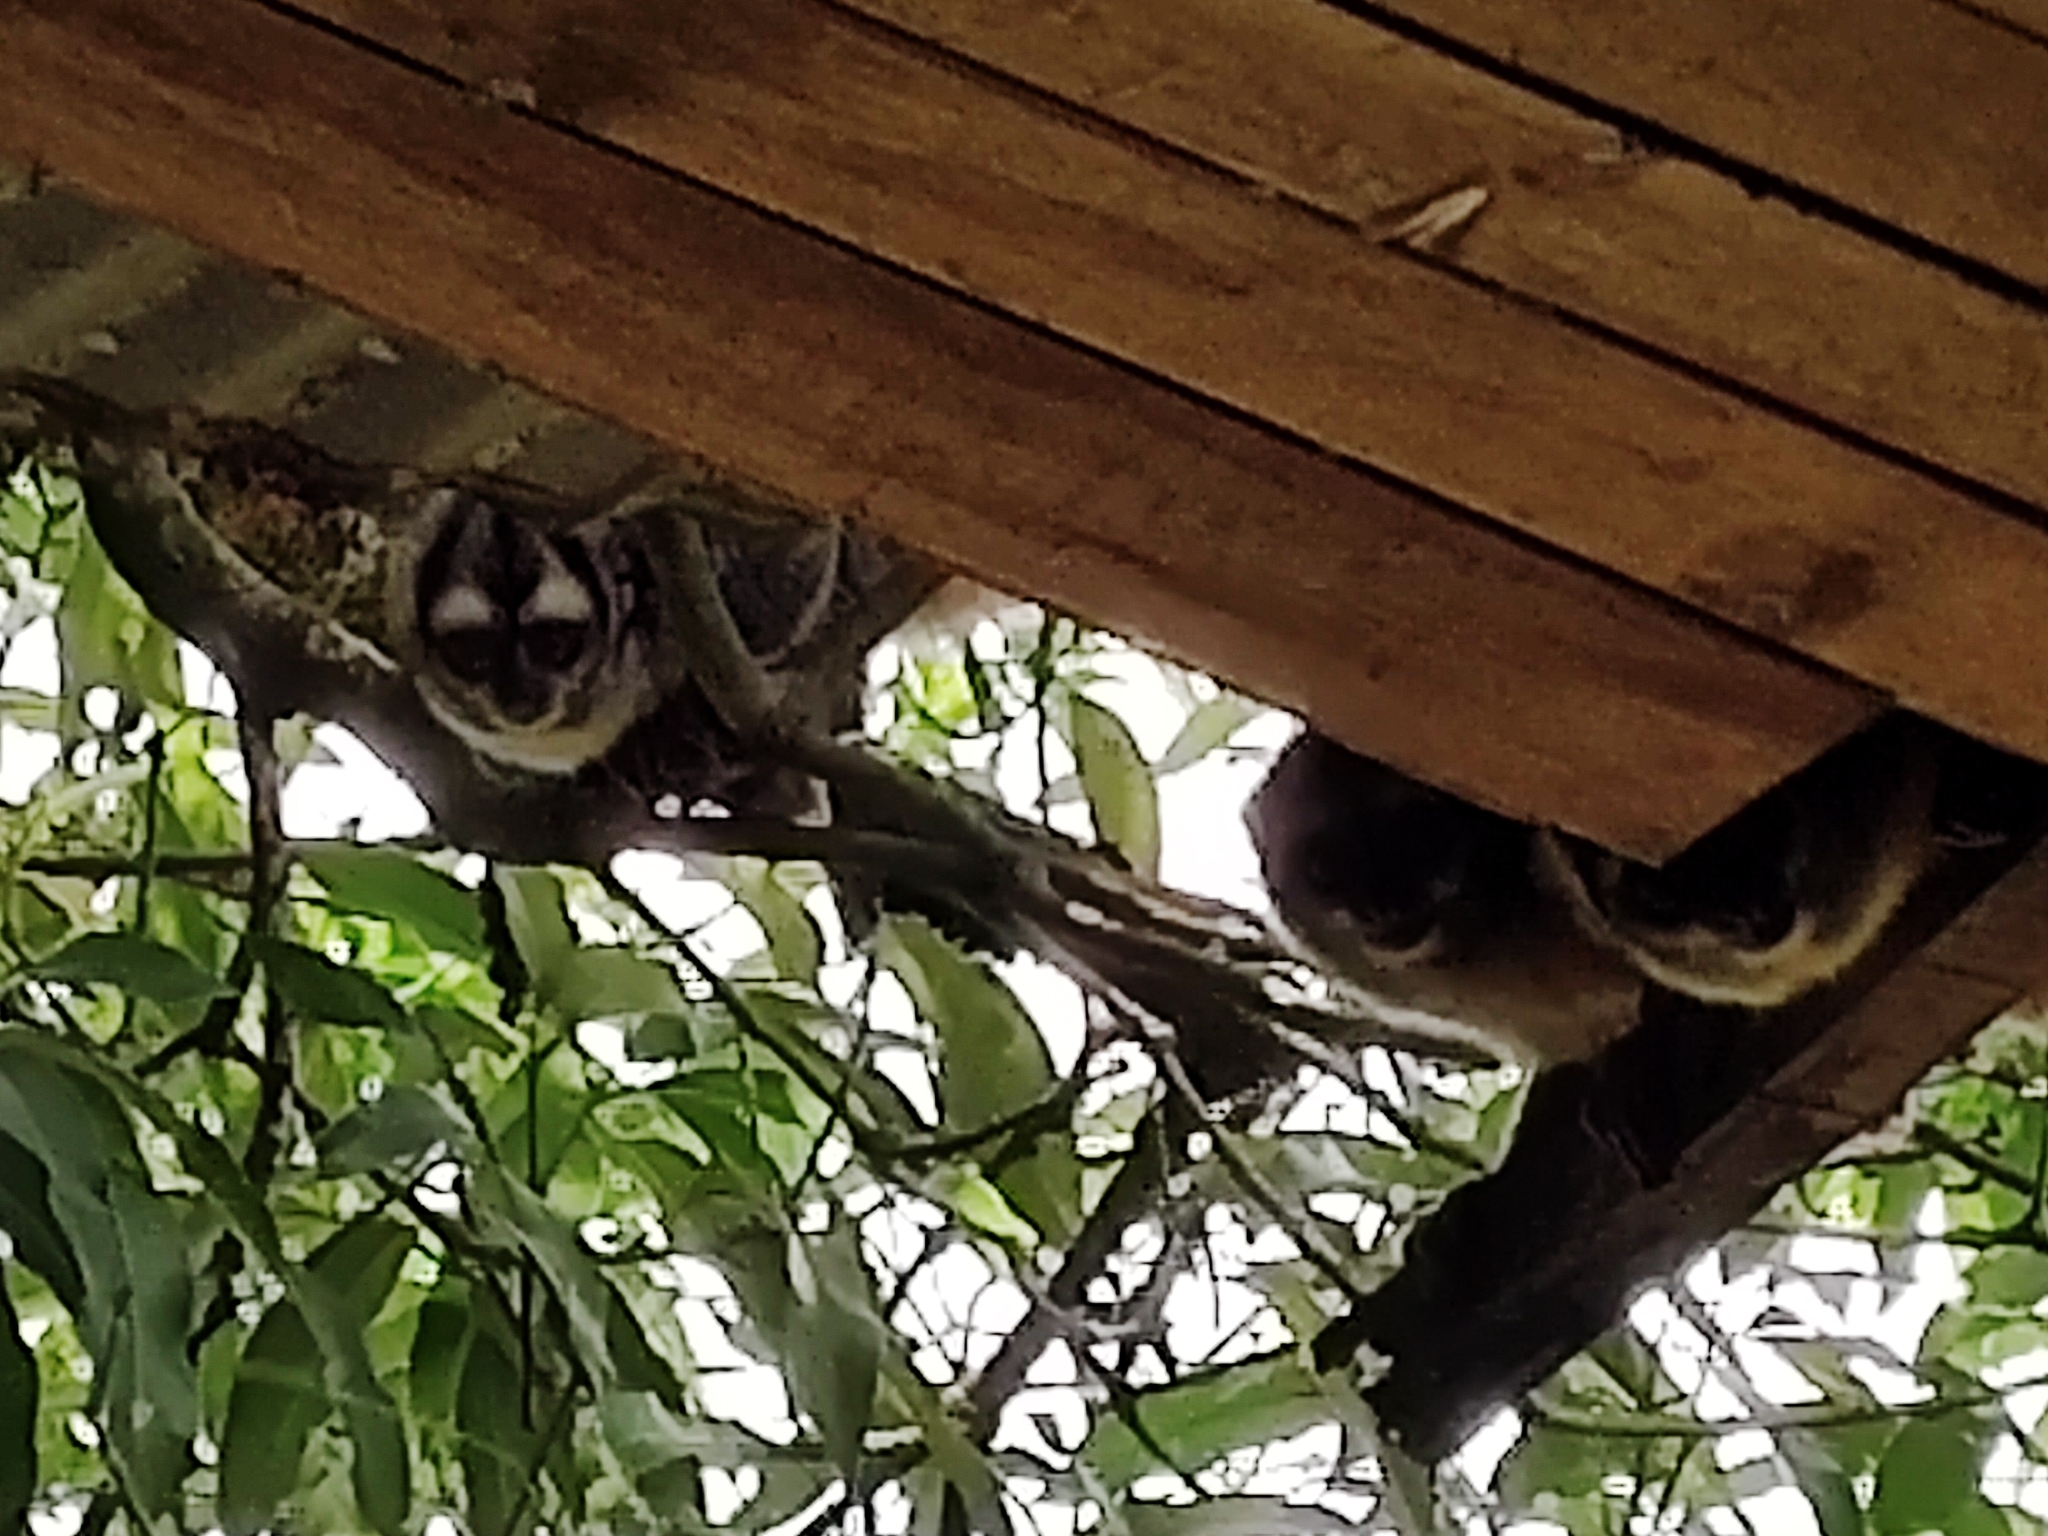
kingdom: Animalia
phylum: Chordata
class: Mammalia
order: Primates
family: Aotidae
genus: Aotus
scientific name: Aotus brumbacki
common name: Brumback's night monkey
